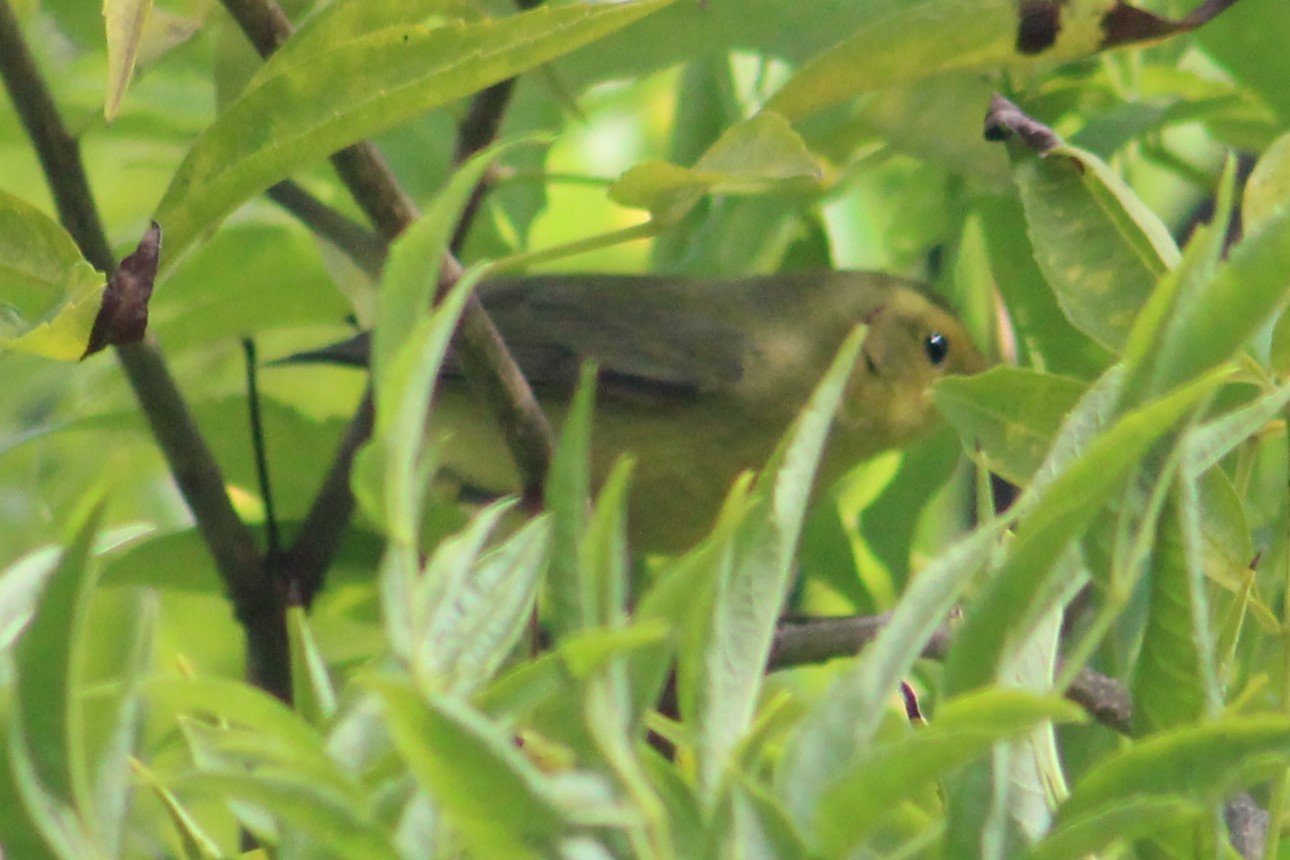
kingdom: Animalia
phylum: Chordata
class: Aves
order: Passeriformes
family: Parulidae
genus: Cardellina
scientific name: Cardellina pusilla
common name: Wilson's warbler
